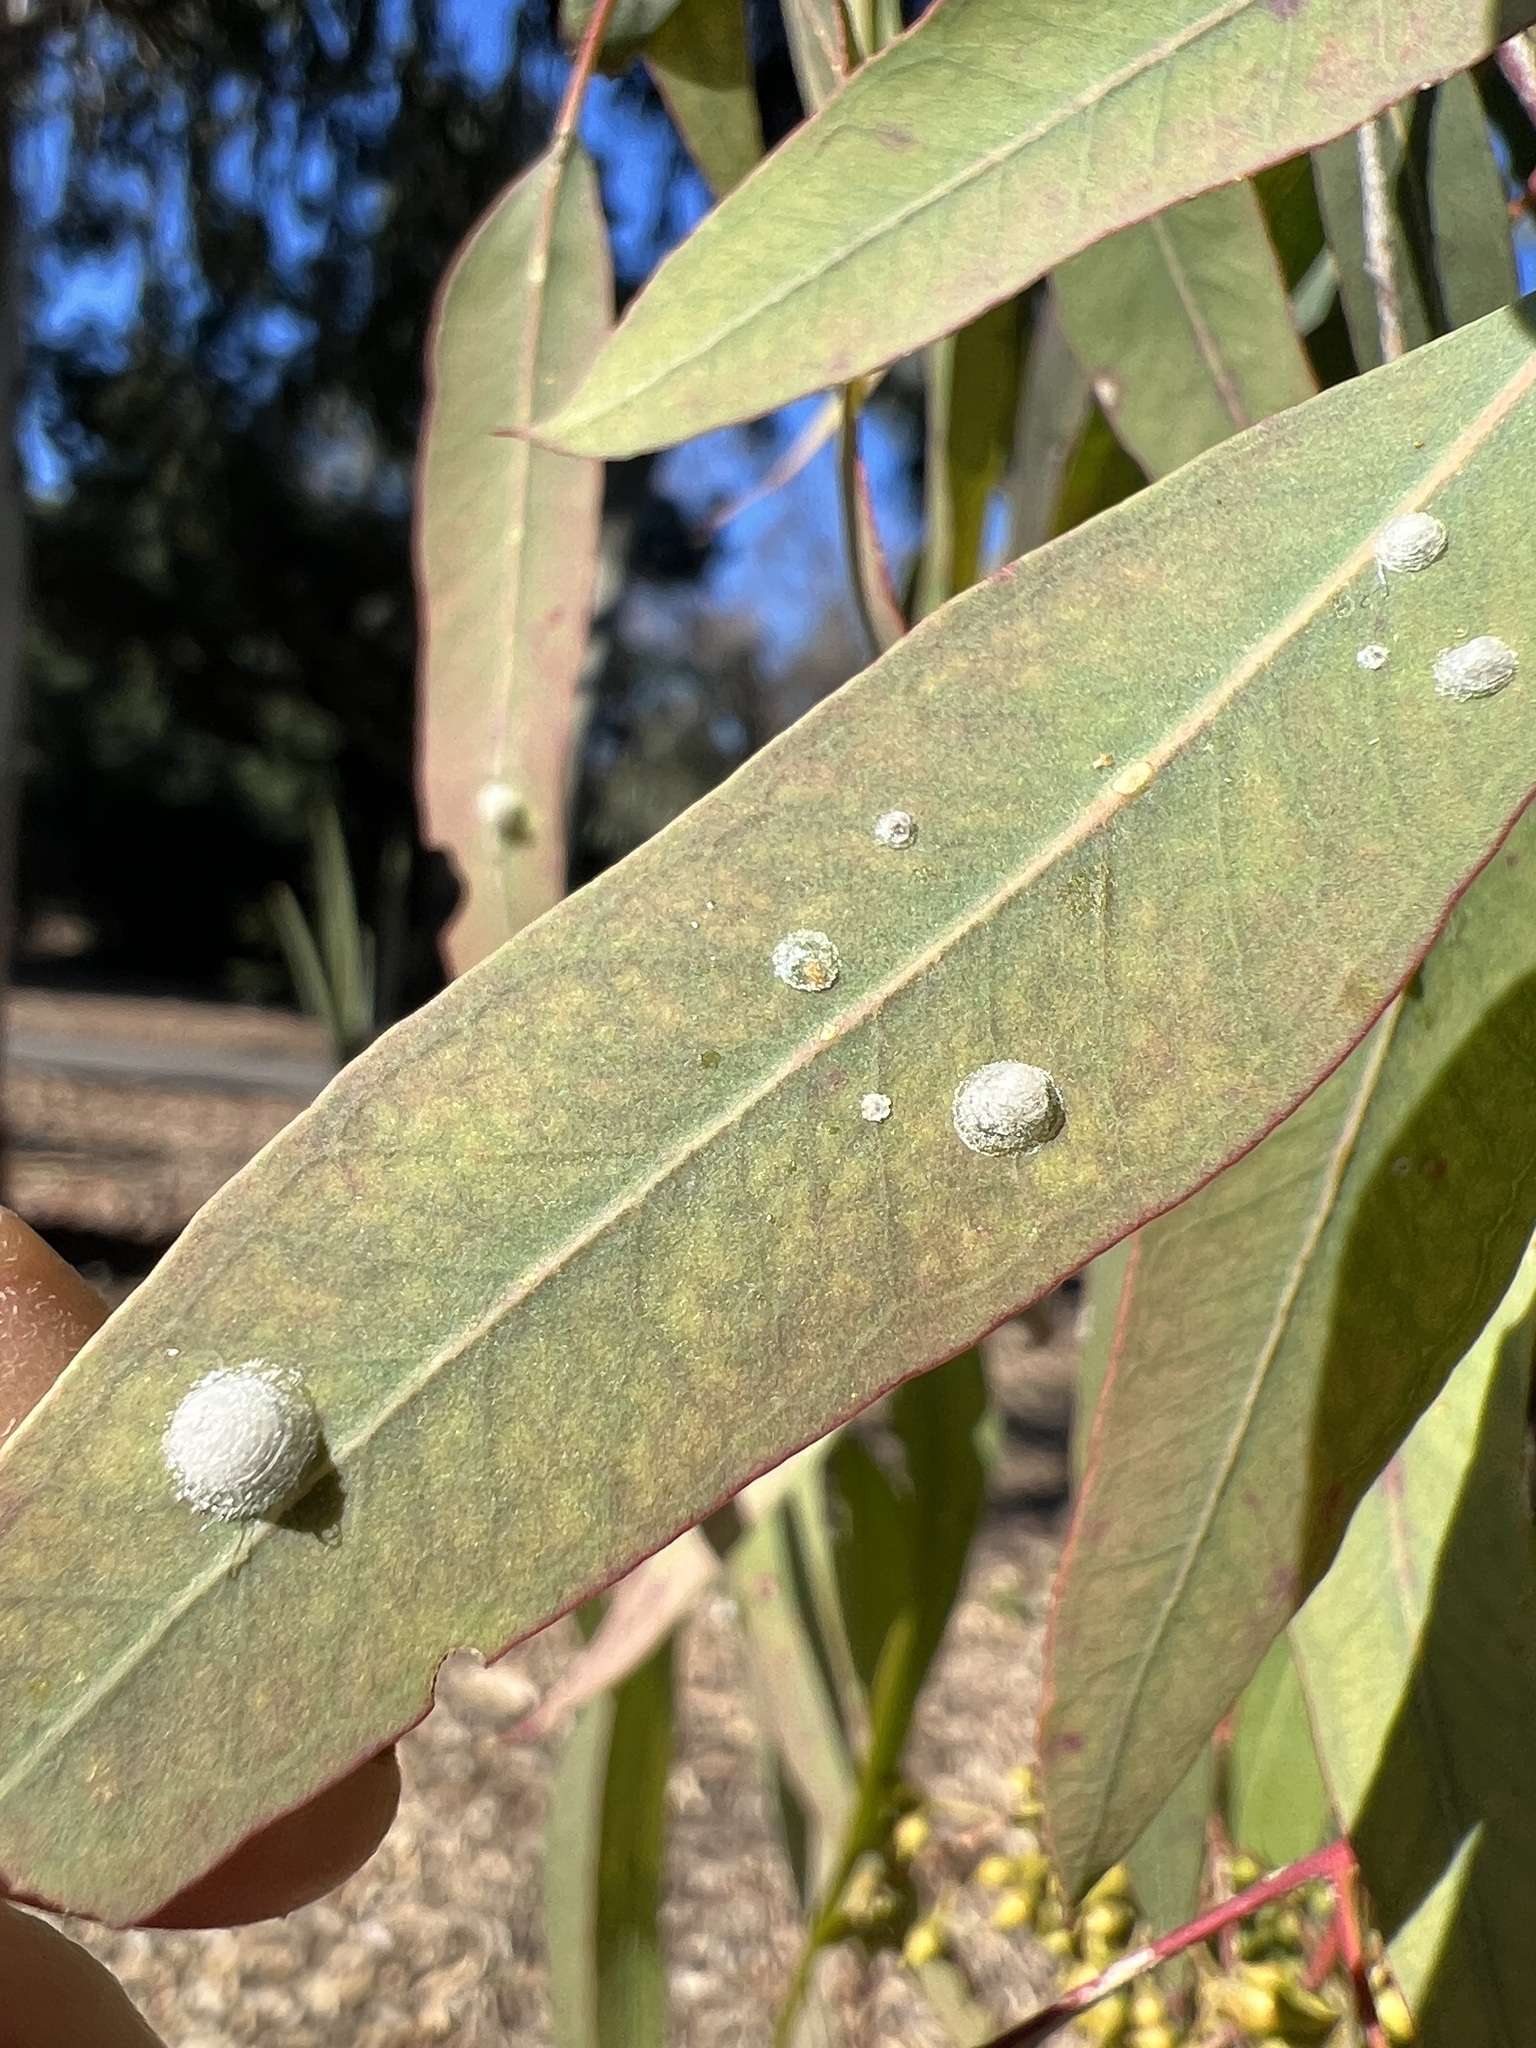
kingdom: Animalia
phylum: Arthropoda
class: Insecta
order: Hemiptera
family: Aphalaridae
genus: Glycaspis
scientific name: Glycaspis brimblecombei
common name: Red gum lerp psyllid
